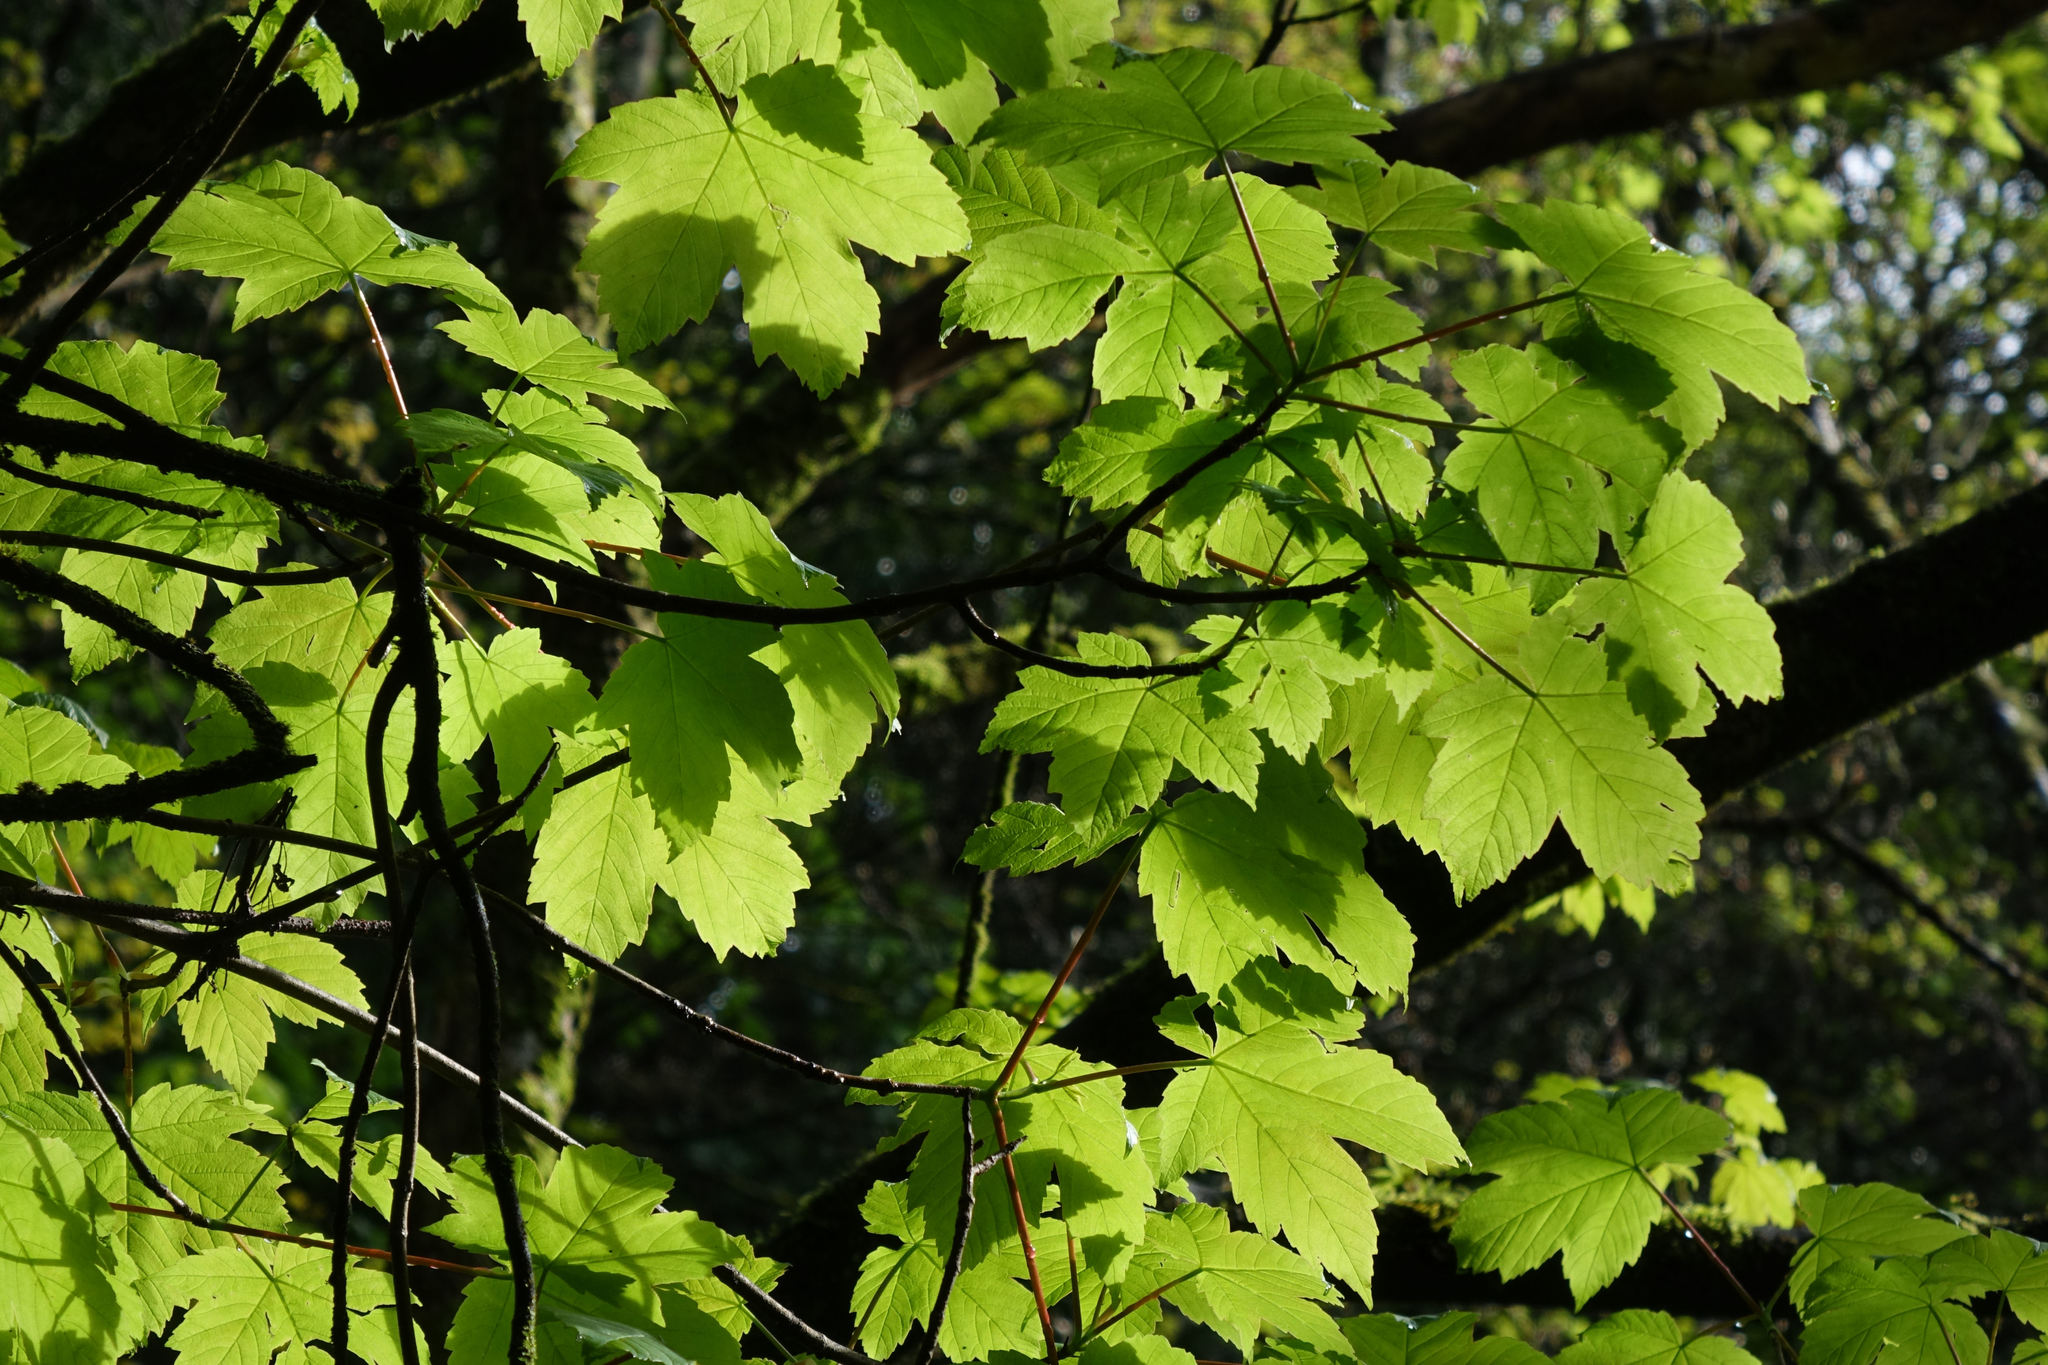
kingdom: Plantae
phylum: Tracheophyta
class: Magnoliopsida
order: Sapindales
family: Sapindaceae
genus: Acer
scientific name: Acer pseudoplatanus
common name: Sycamore
